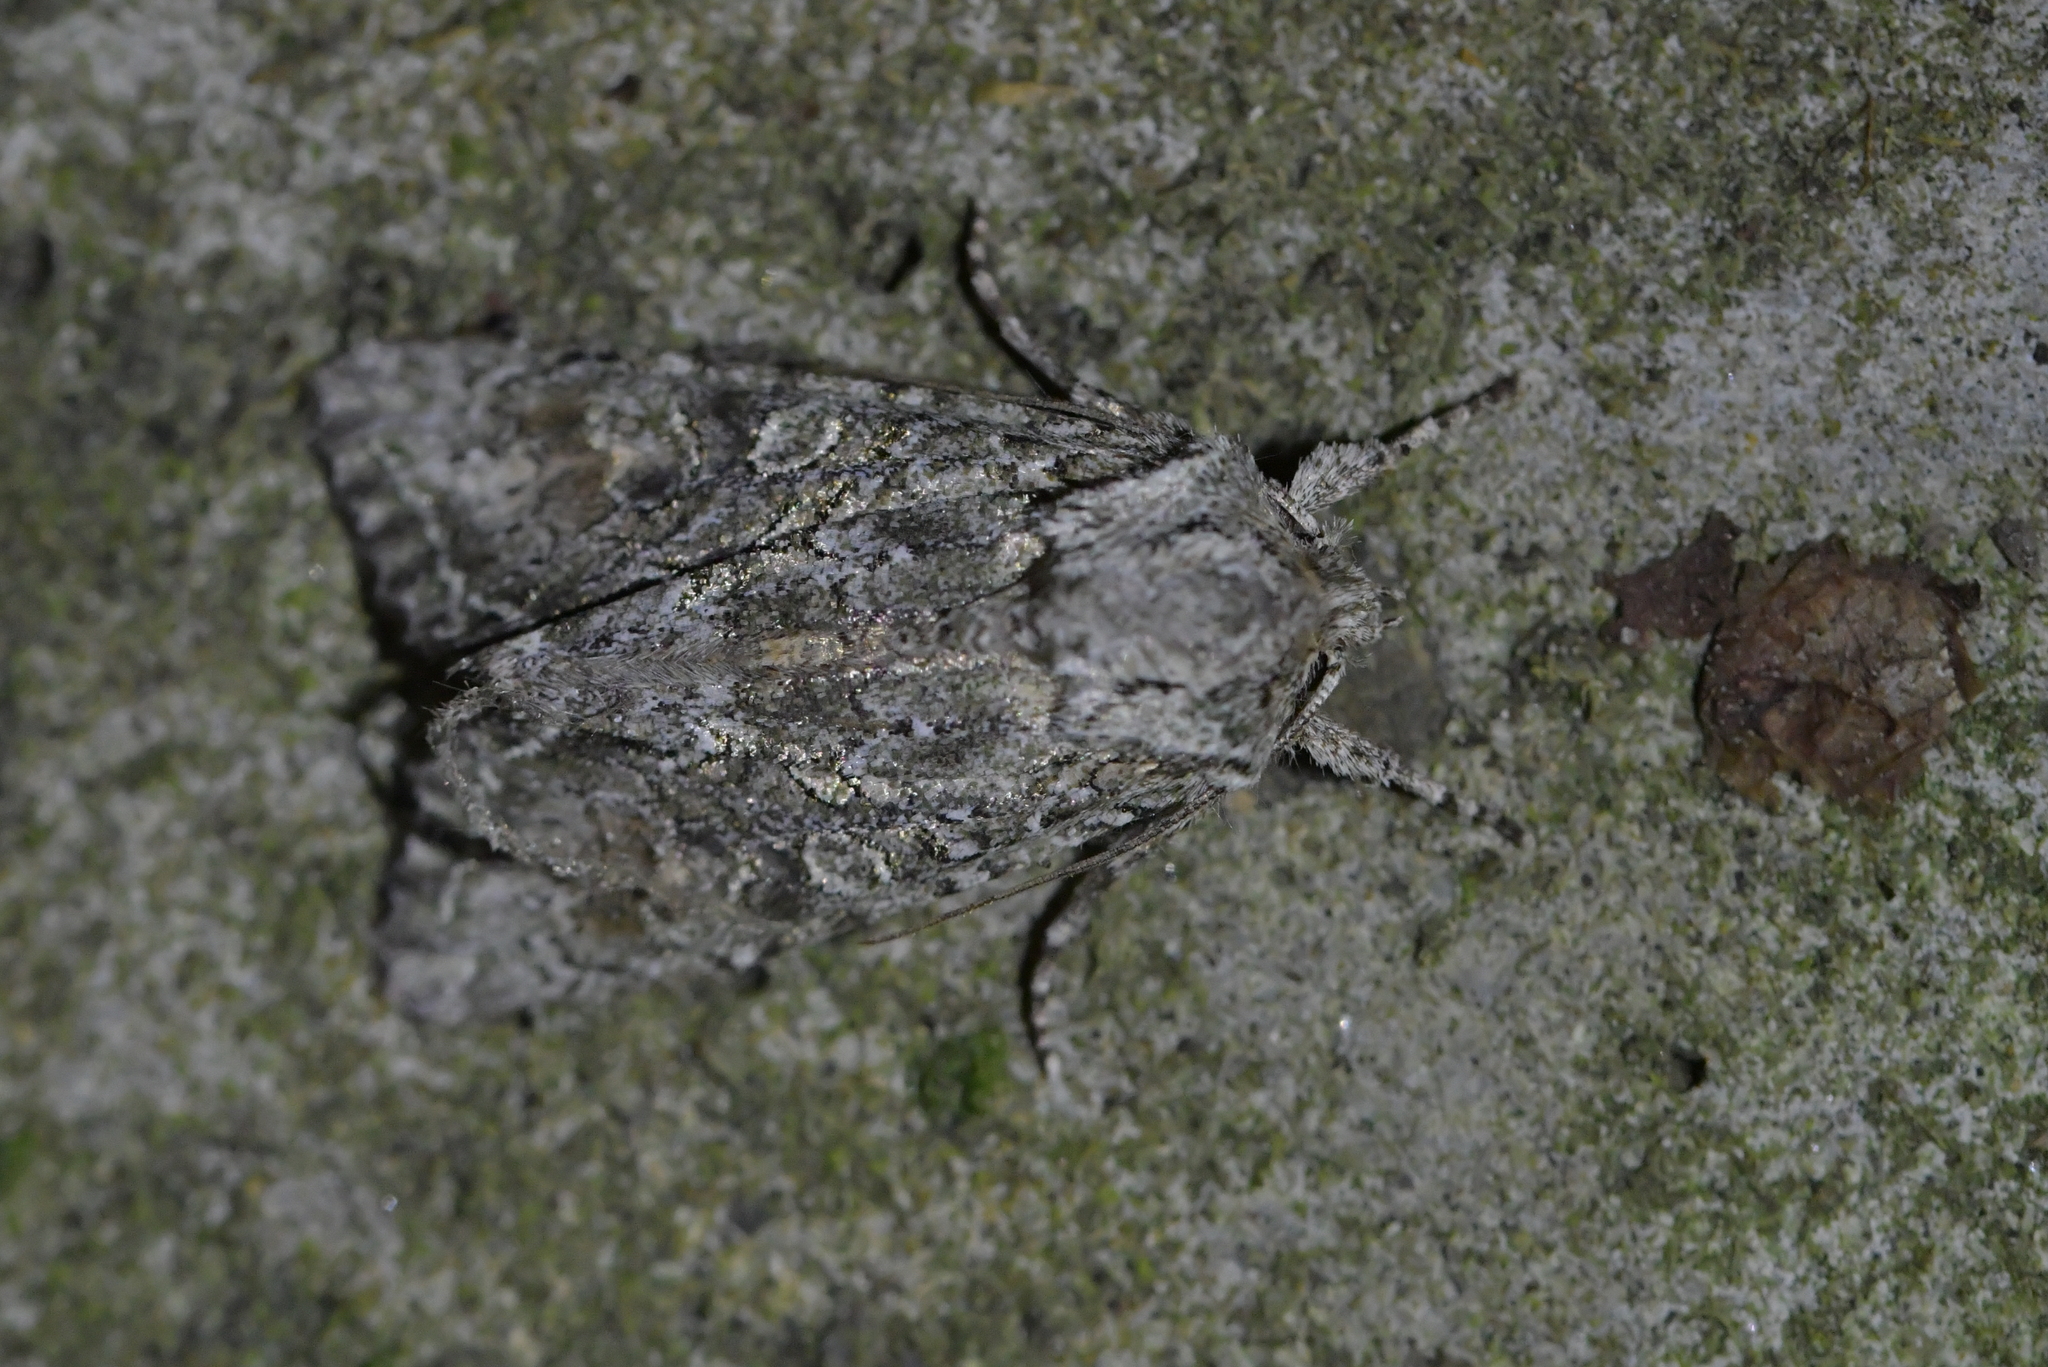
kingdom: Animalia
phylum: Arthropoda
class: Insecta
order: Lepidoptera
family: Noctuidae
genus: Ichneutica
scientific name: Ichneutica mutans
